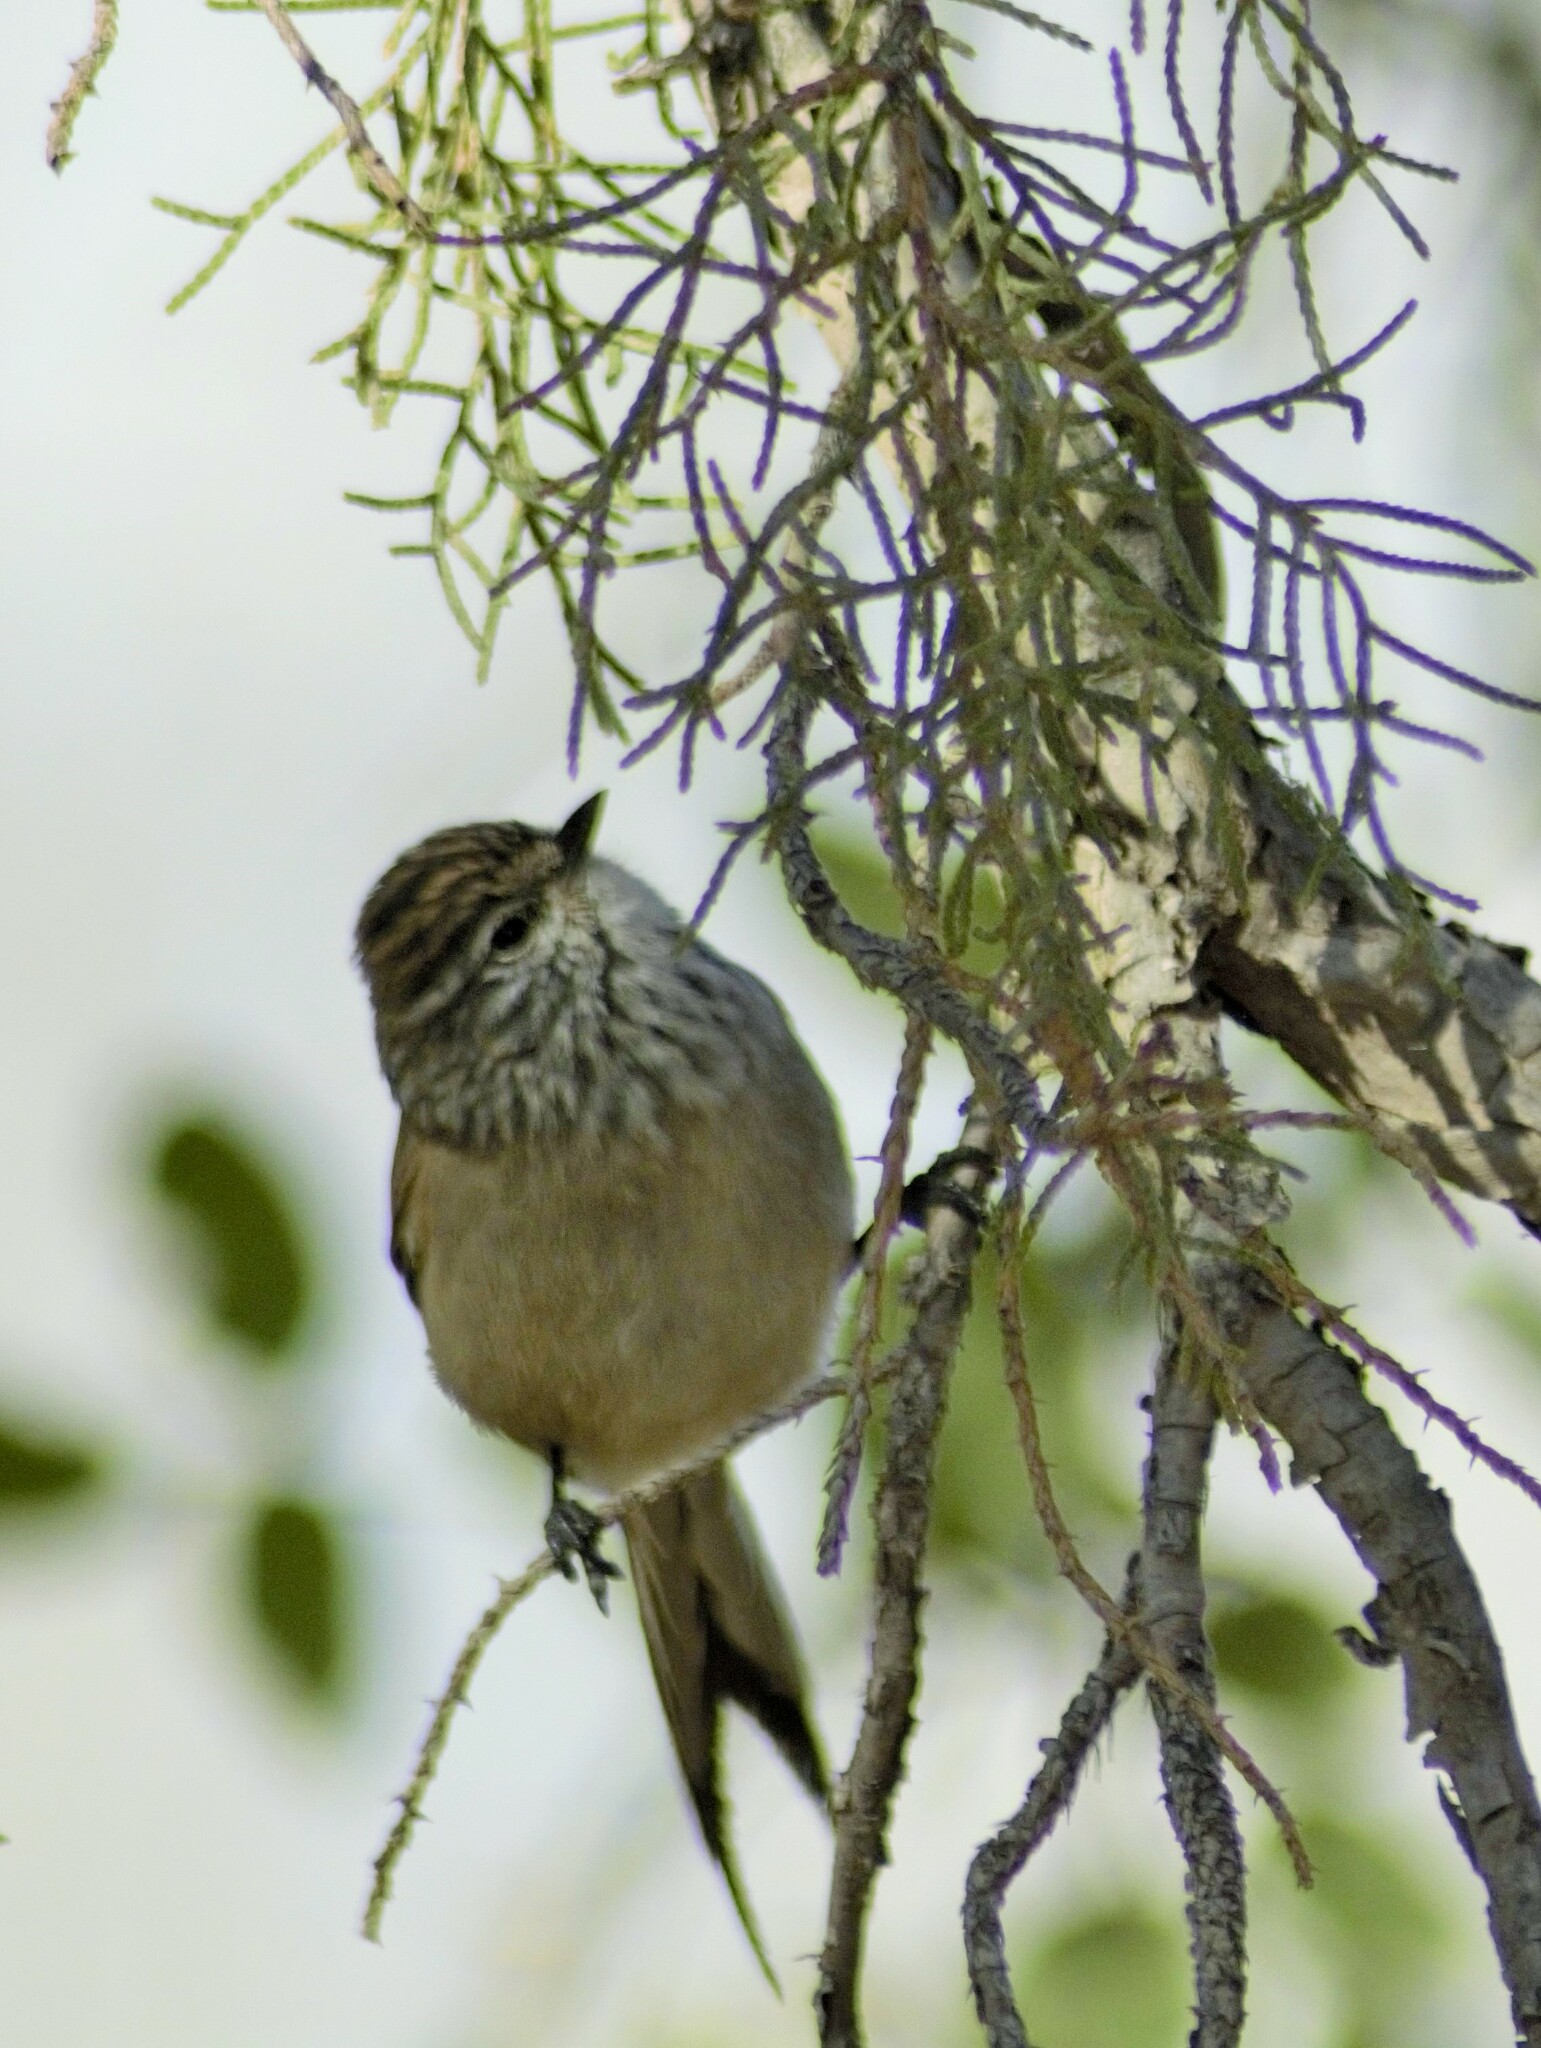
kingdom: Animalia
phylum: Chordata
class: Aves
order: Passeriformes
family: Furnariidae
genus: Leptasthenura
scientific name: Leptasthenura aegithaloides
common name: Plain-mantled tit-spinetail
